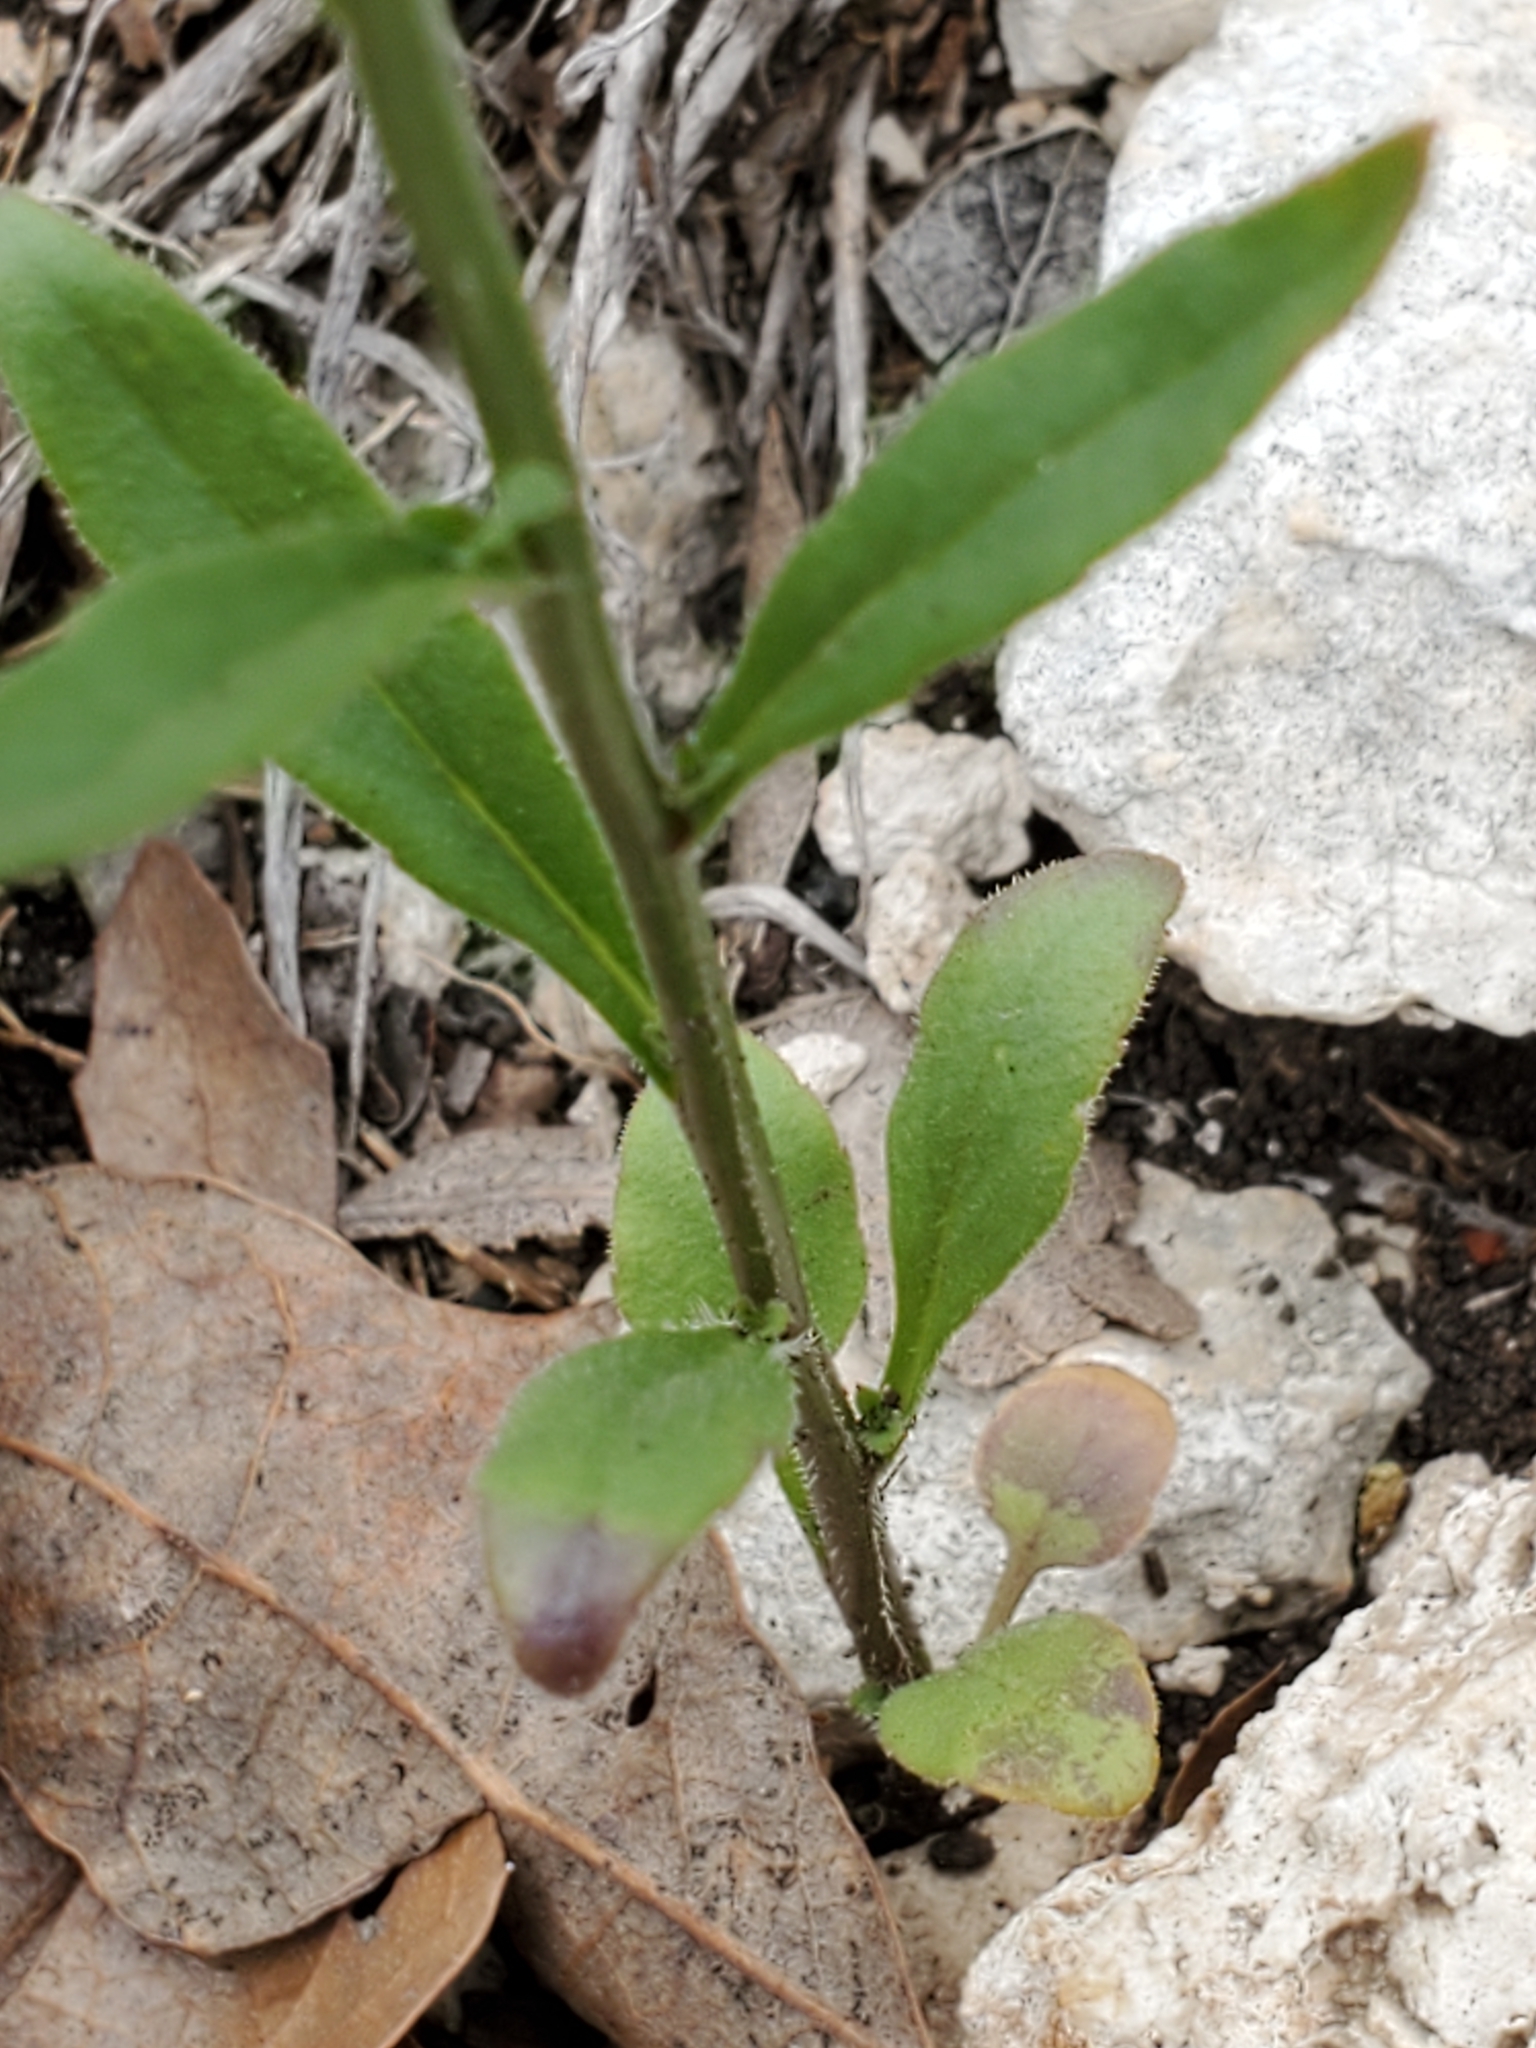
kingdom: Plantae
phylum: Tracheophyta
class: Magnoliopsida
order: Asterales
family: Campanulaceae
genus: Triodanis
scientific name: Triodanis coloradoensis
